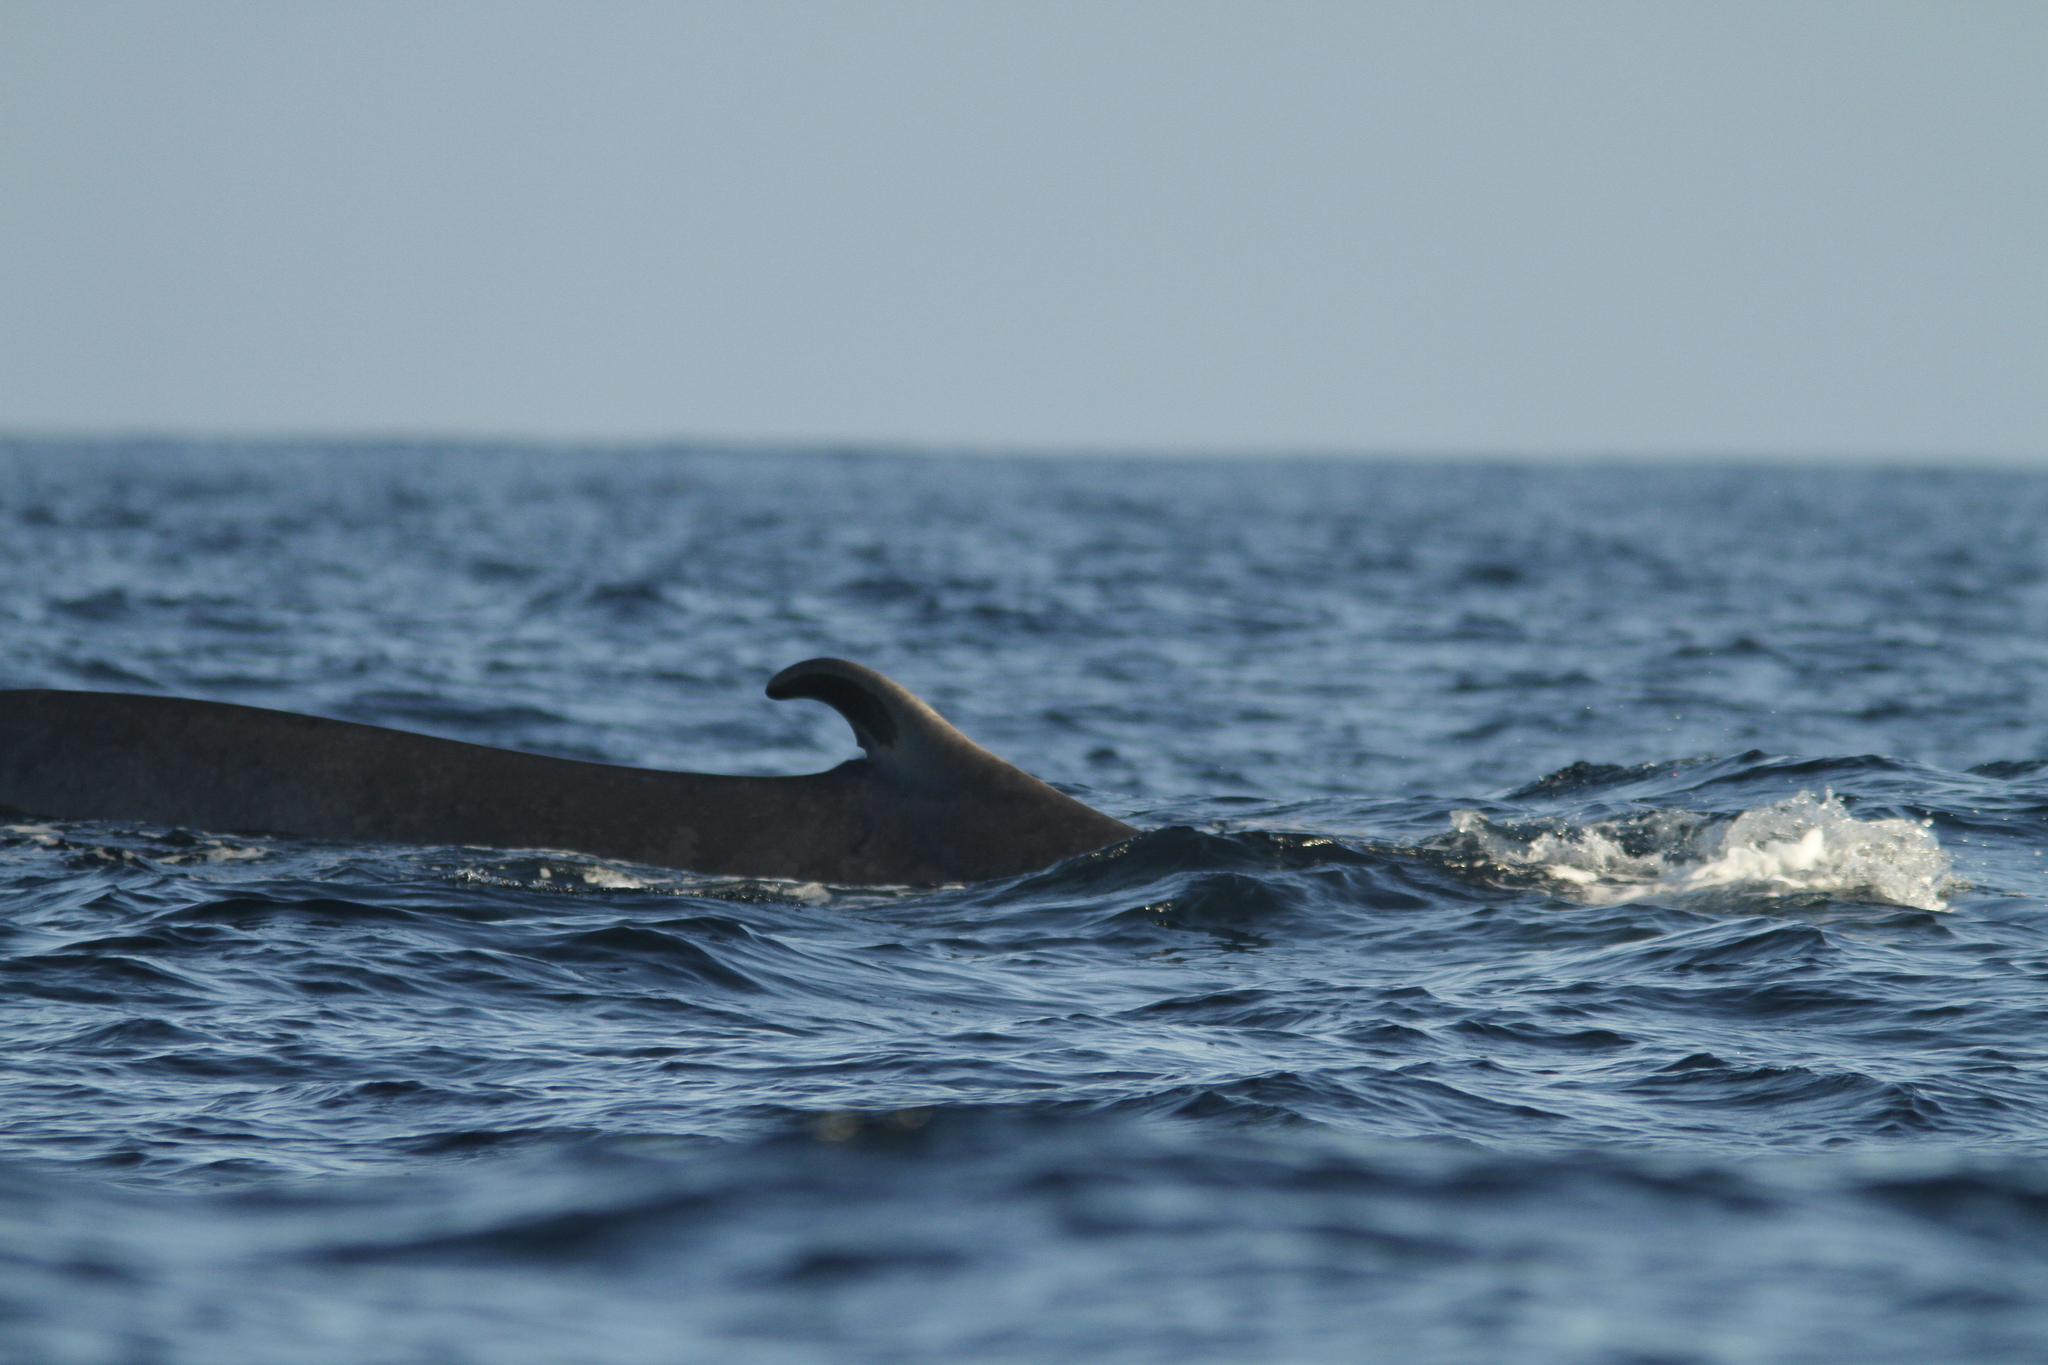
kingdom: Animalia
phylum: Chordata
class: Mammalia
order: Cetacea
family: Balaenopteridae
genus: Balaenoptera
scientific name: Balaenoptera physalus
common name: Fin whale
